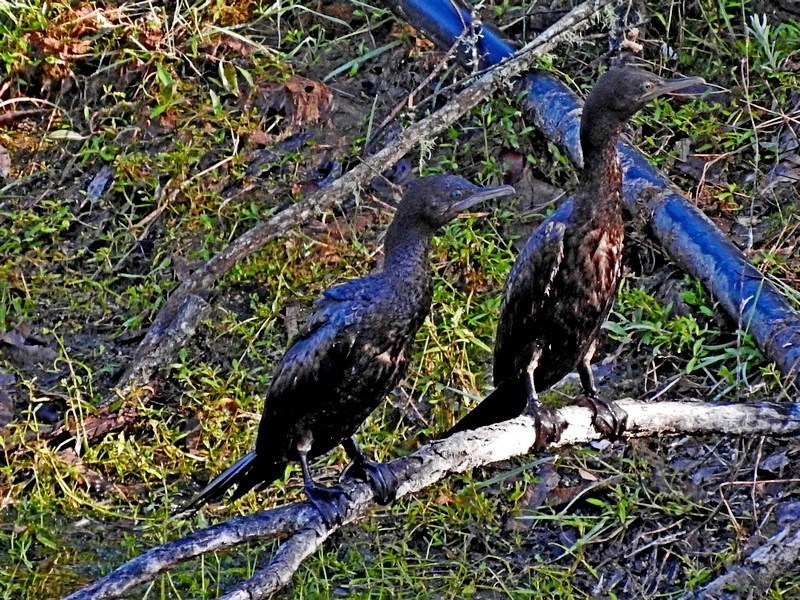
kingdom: Animalia
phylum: Chordata
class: Aves
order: Suliformes
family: Phalacrocoracidae
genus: Phalacrocorax
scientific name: Phalacrocorax sulcirostris
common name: Little black cormorant
